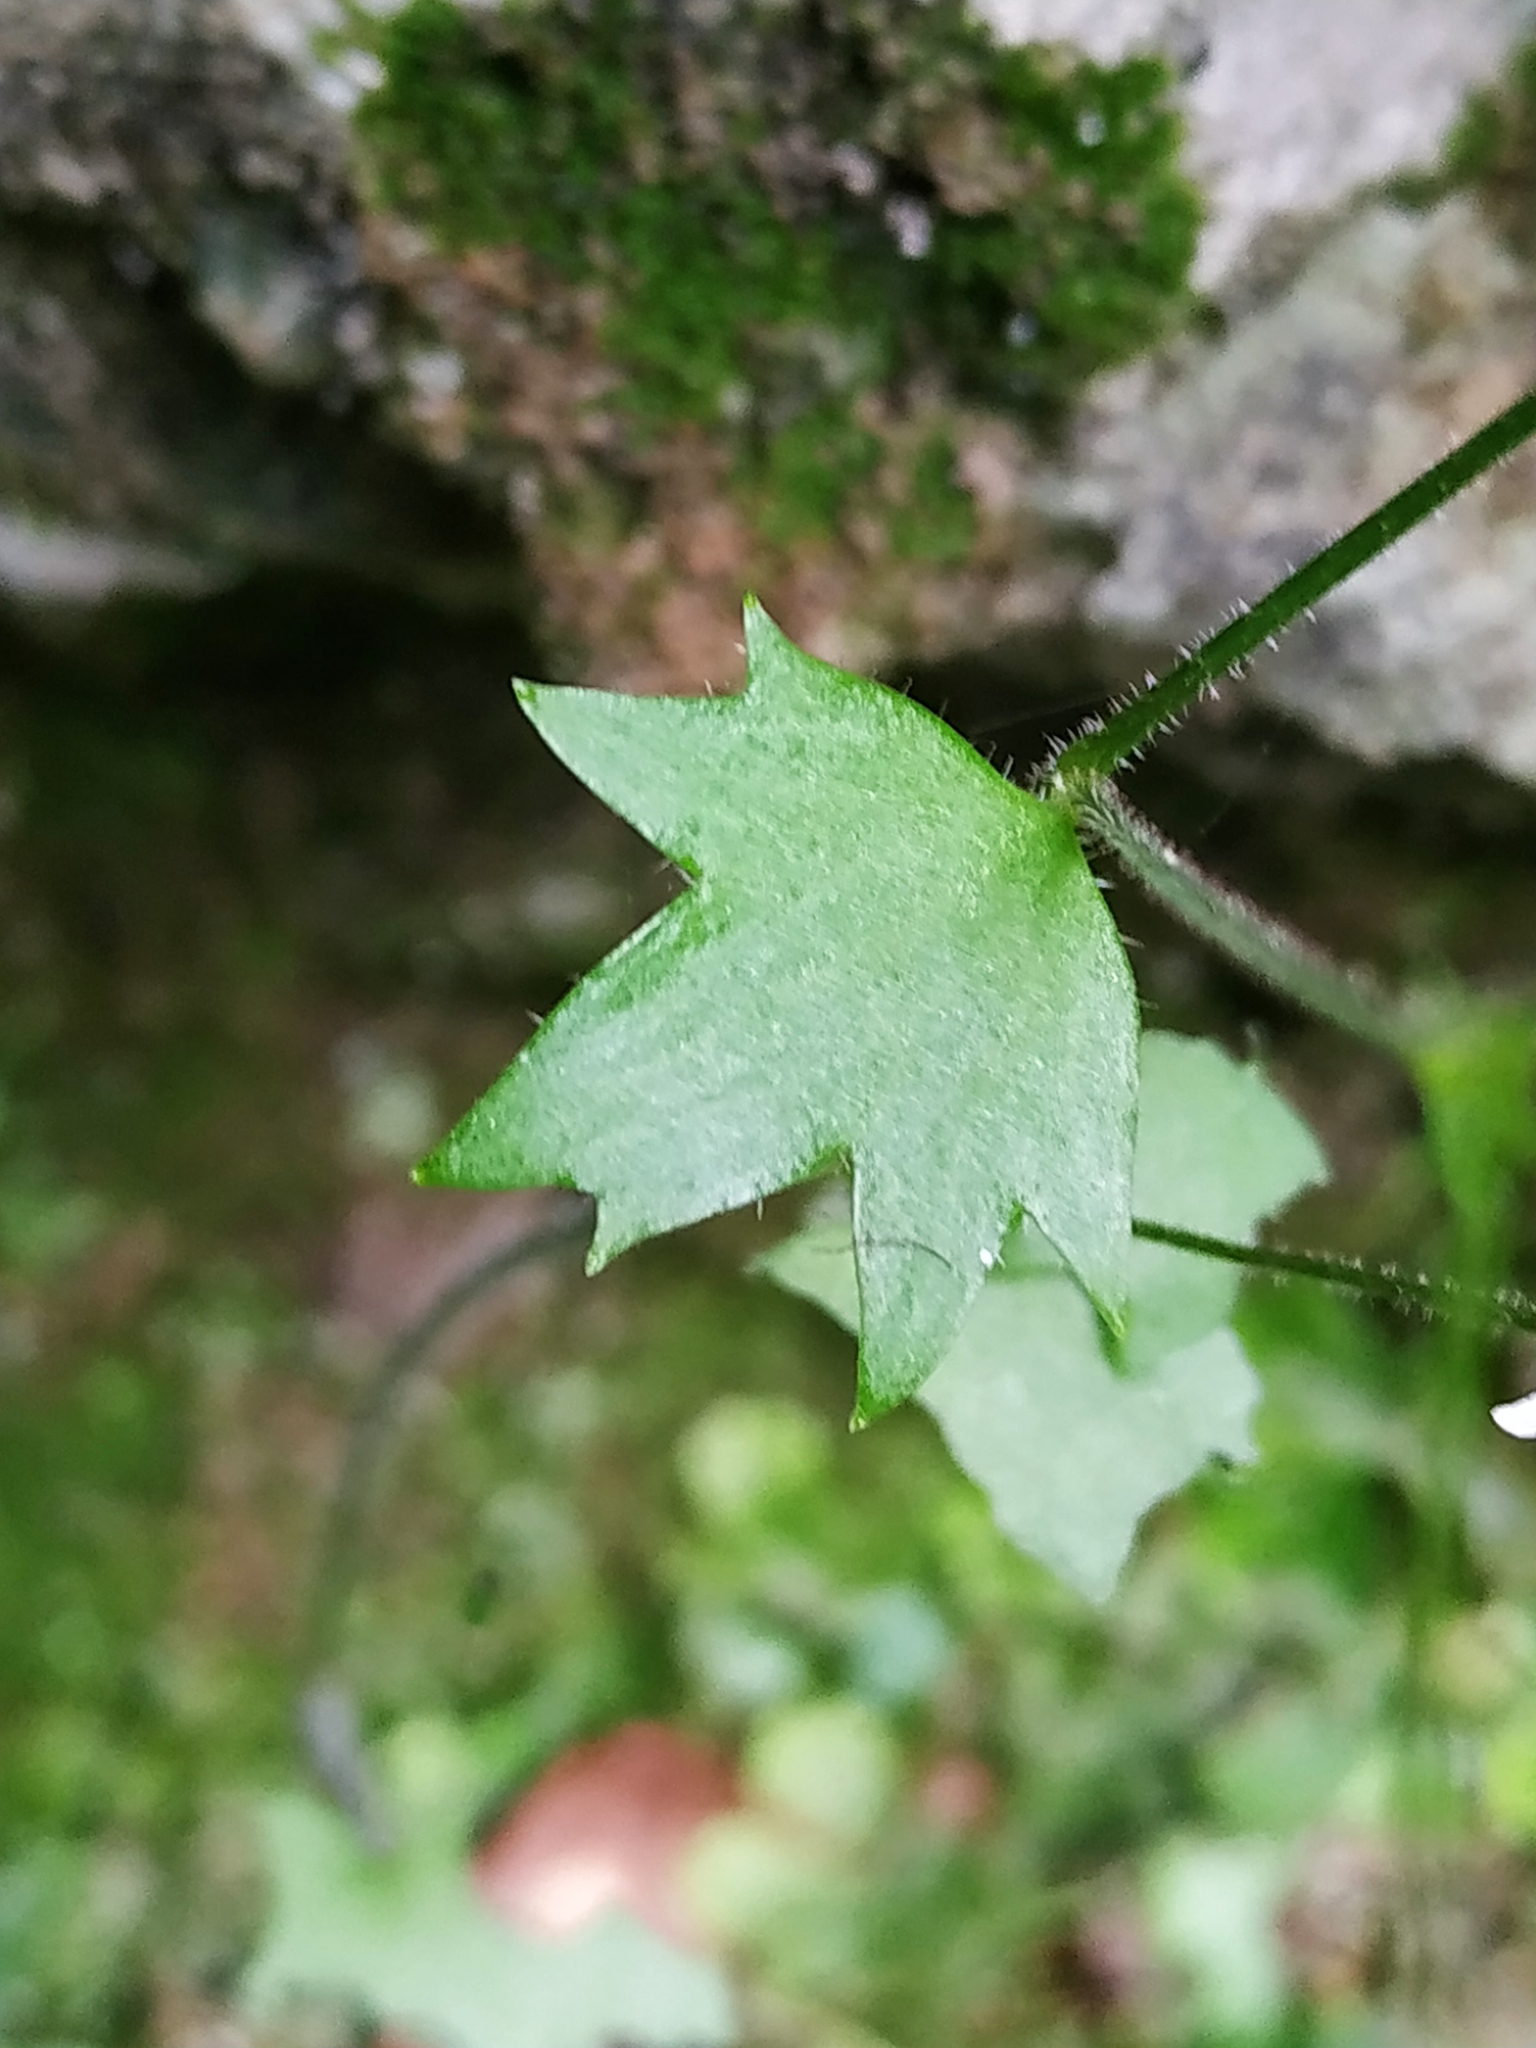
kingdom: Plantae
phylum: Tracheophyta
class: Magnoliopsida
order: Saxifragales
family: Saxifragaceae
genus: Saxifraga
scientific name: Saxifraga rotundifolia
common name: Round-leaved saxifrage
